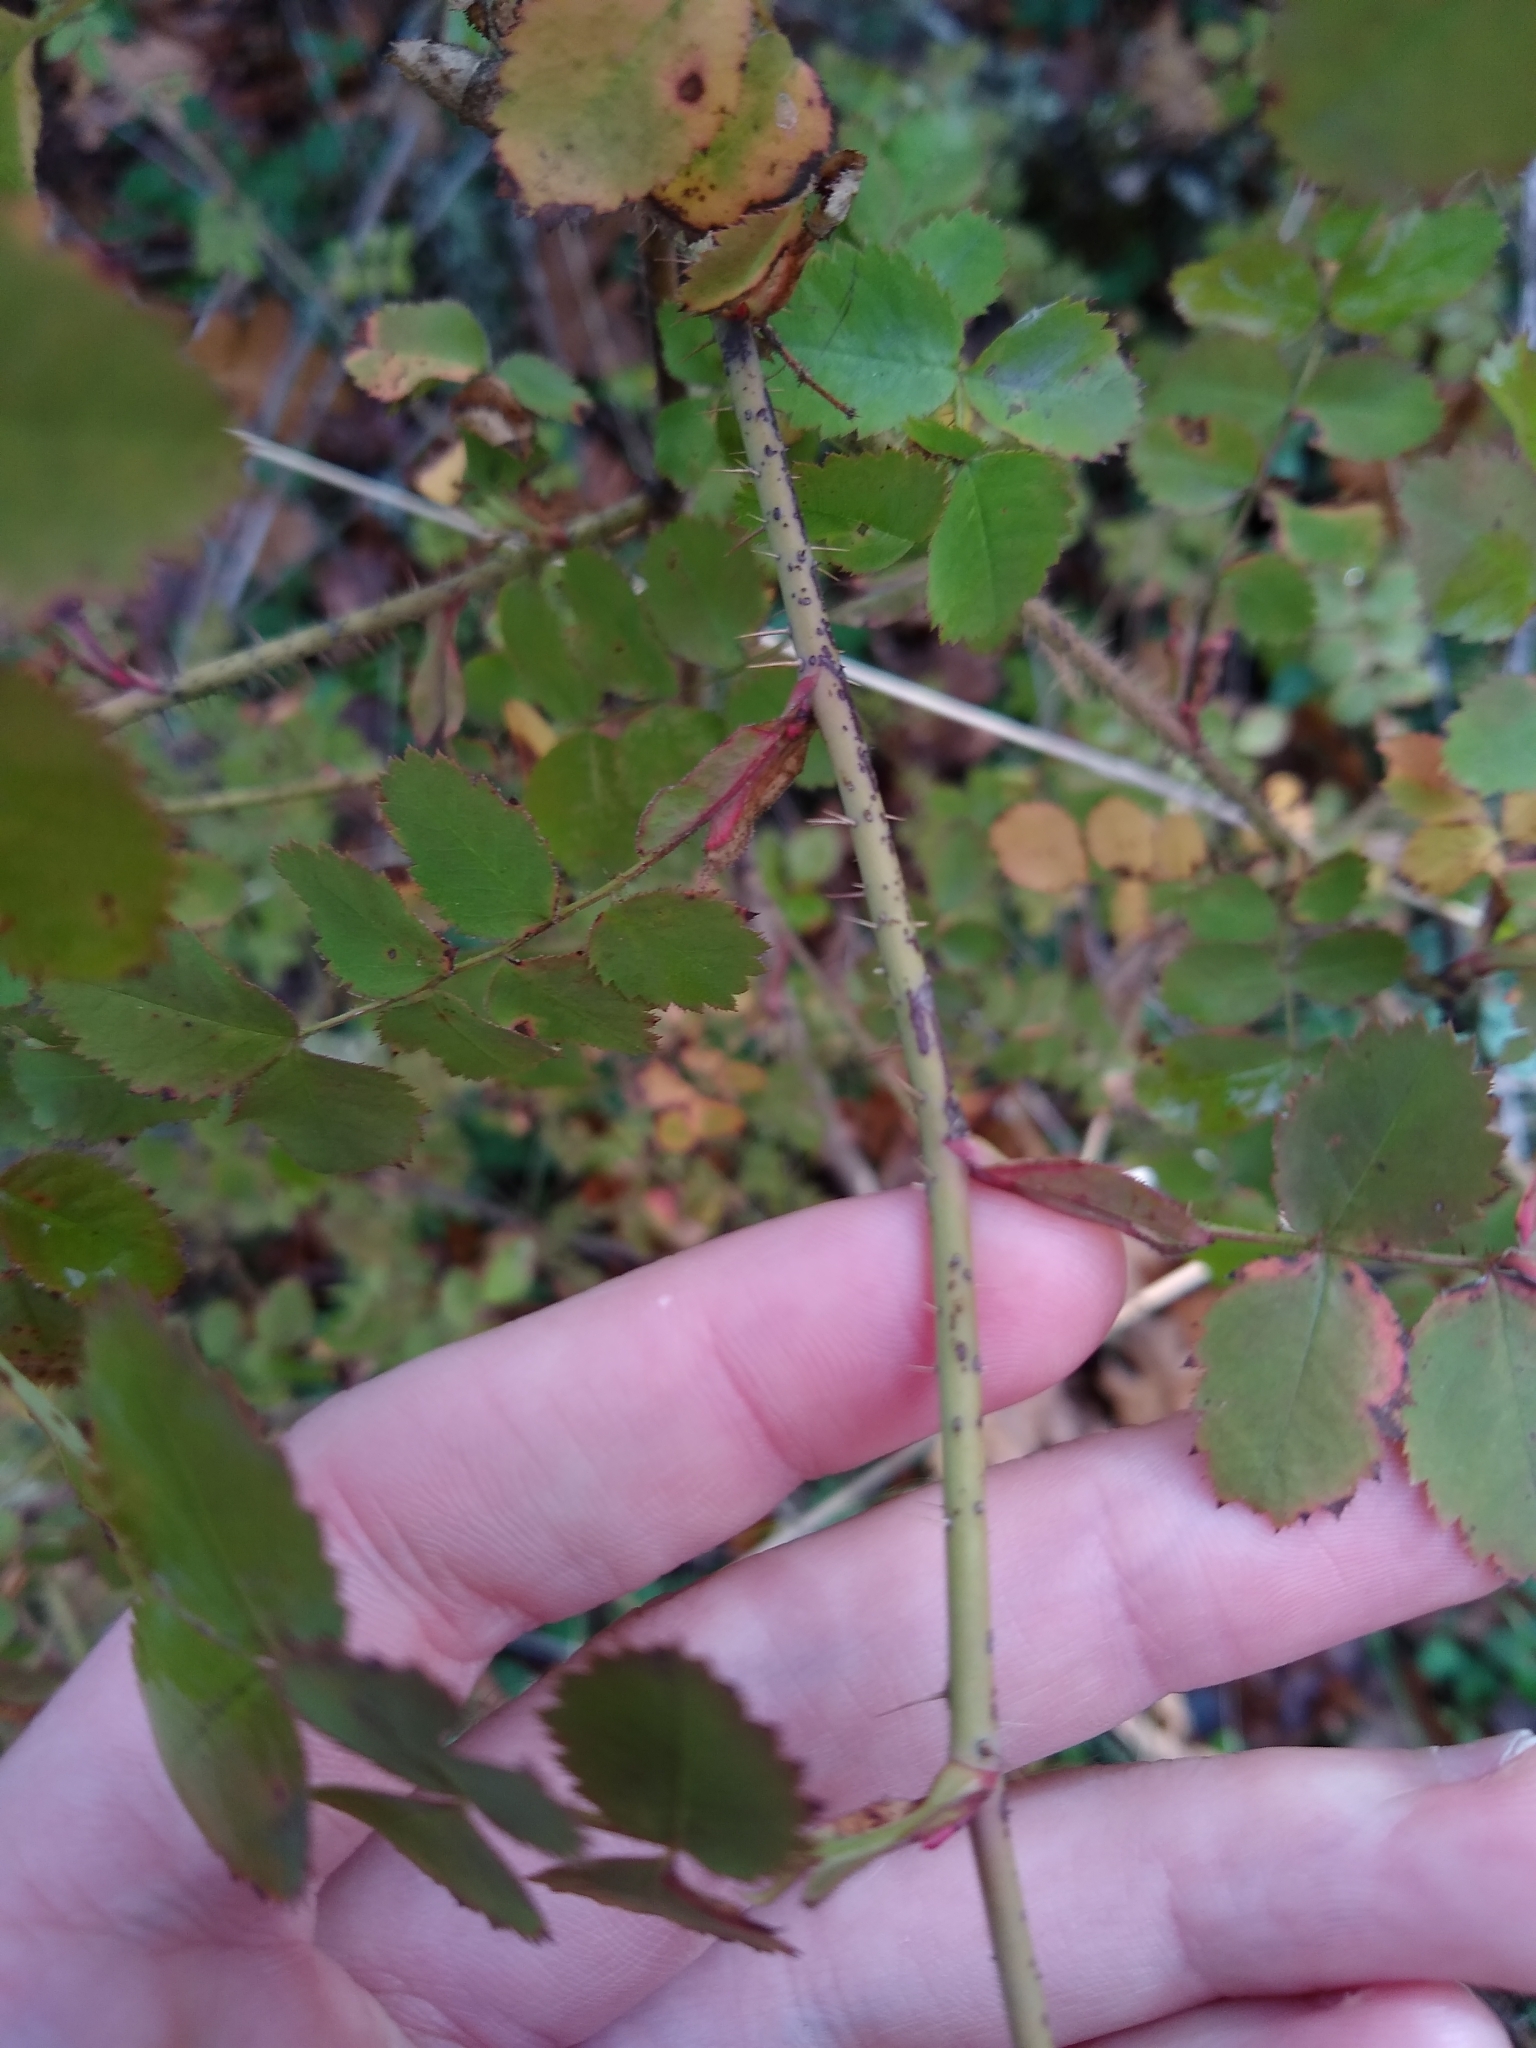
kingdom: Plantae
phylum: Tracheophyta
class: Magnoliopsida
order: Rosales
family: Rosaceae
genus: Rosa
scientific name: Rosa gymnocarpa
